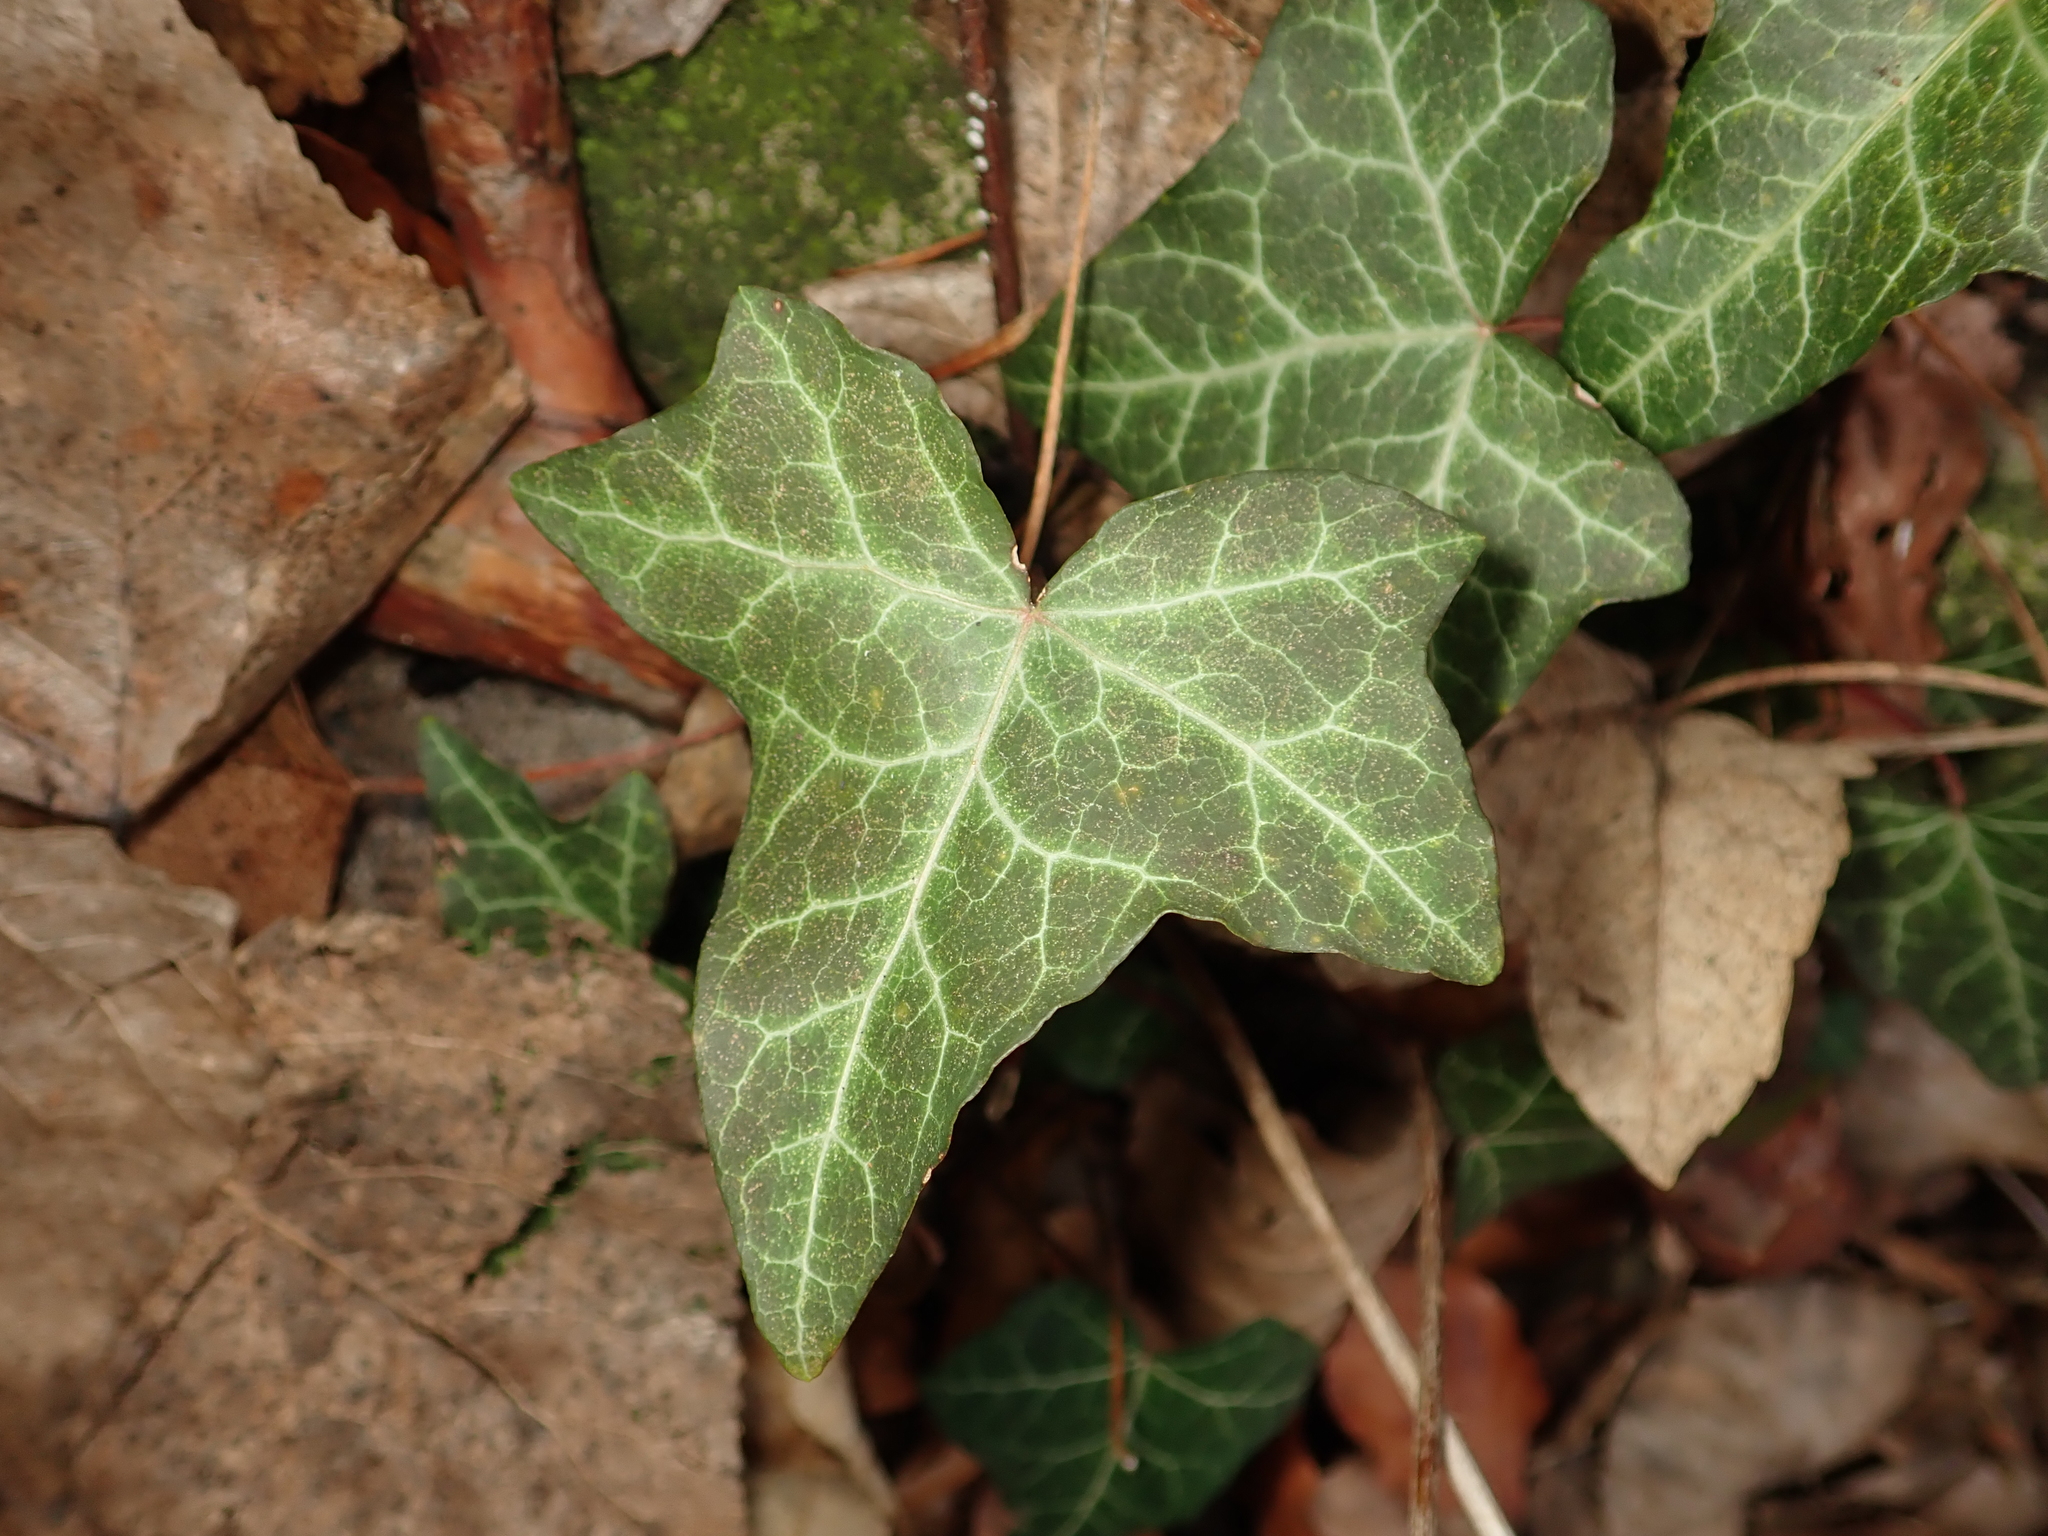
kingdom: Plantae
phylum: Tracheophyta
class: Magnoliopsida
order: Apiales
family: Araliaceae
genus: Hedera
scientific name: Hedera helix
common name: Ivy
